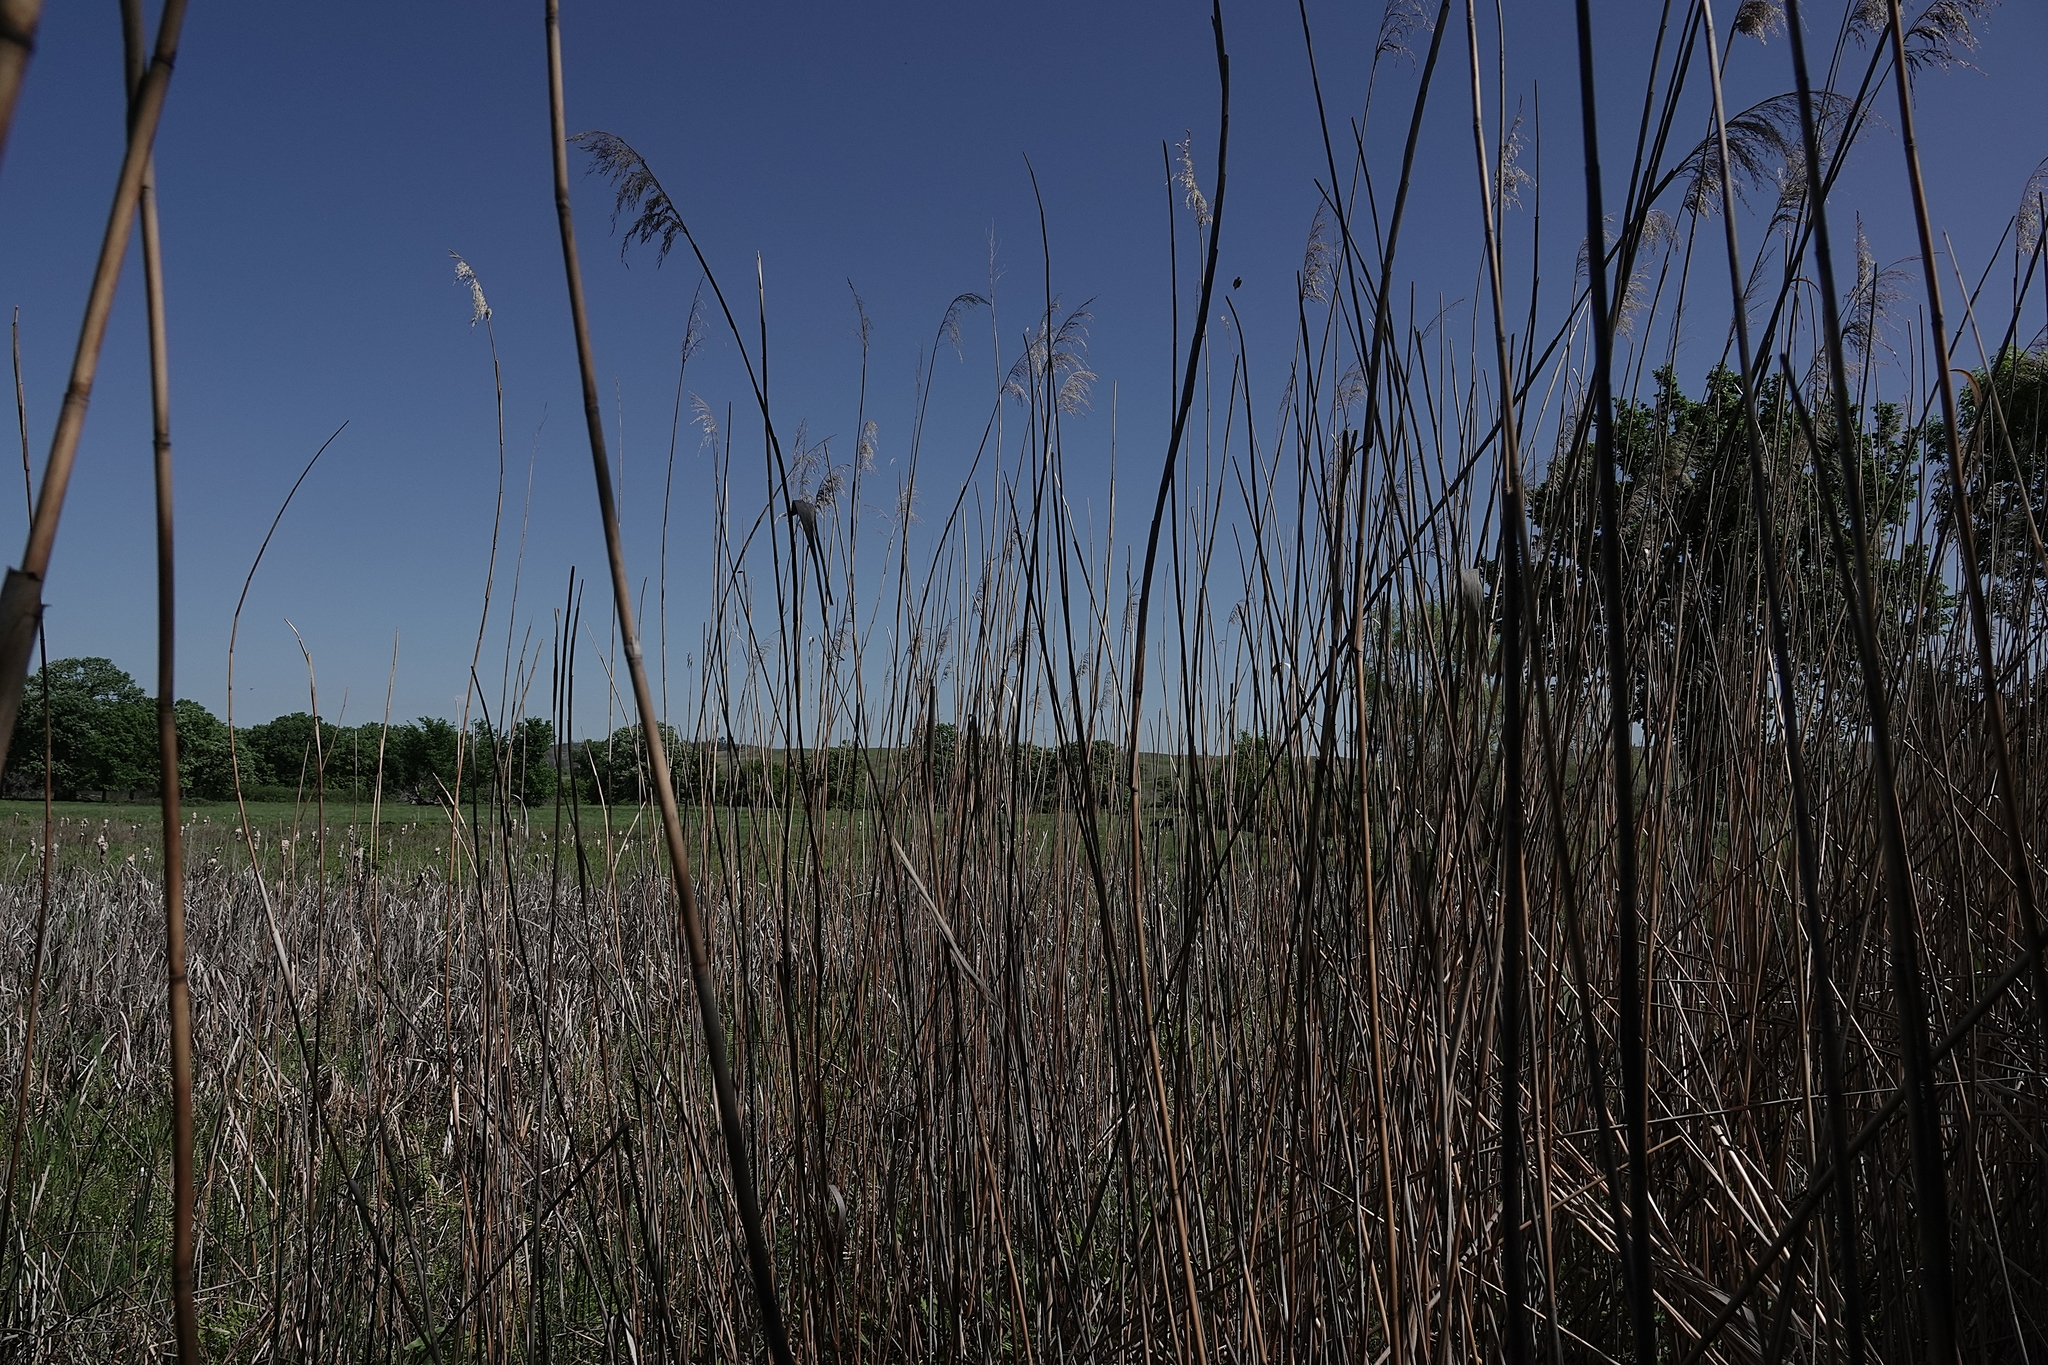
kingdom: Plantae
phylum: Tracheophyta
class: Liliopsida
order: Poales
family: Poaceae
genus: Phragmites
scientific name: Phragmites australis
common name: Common reed
